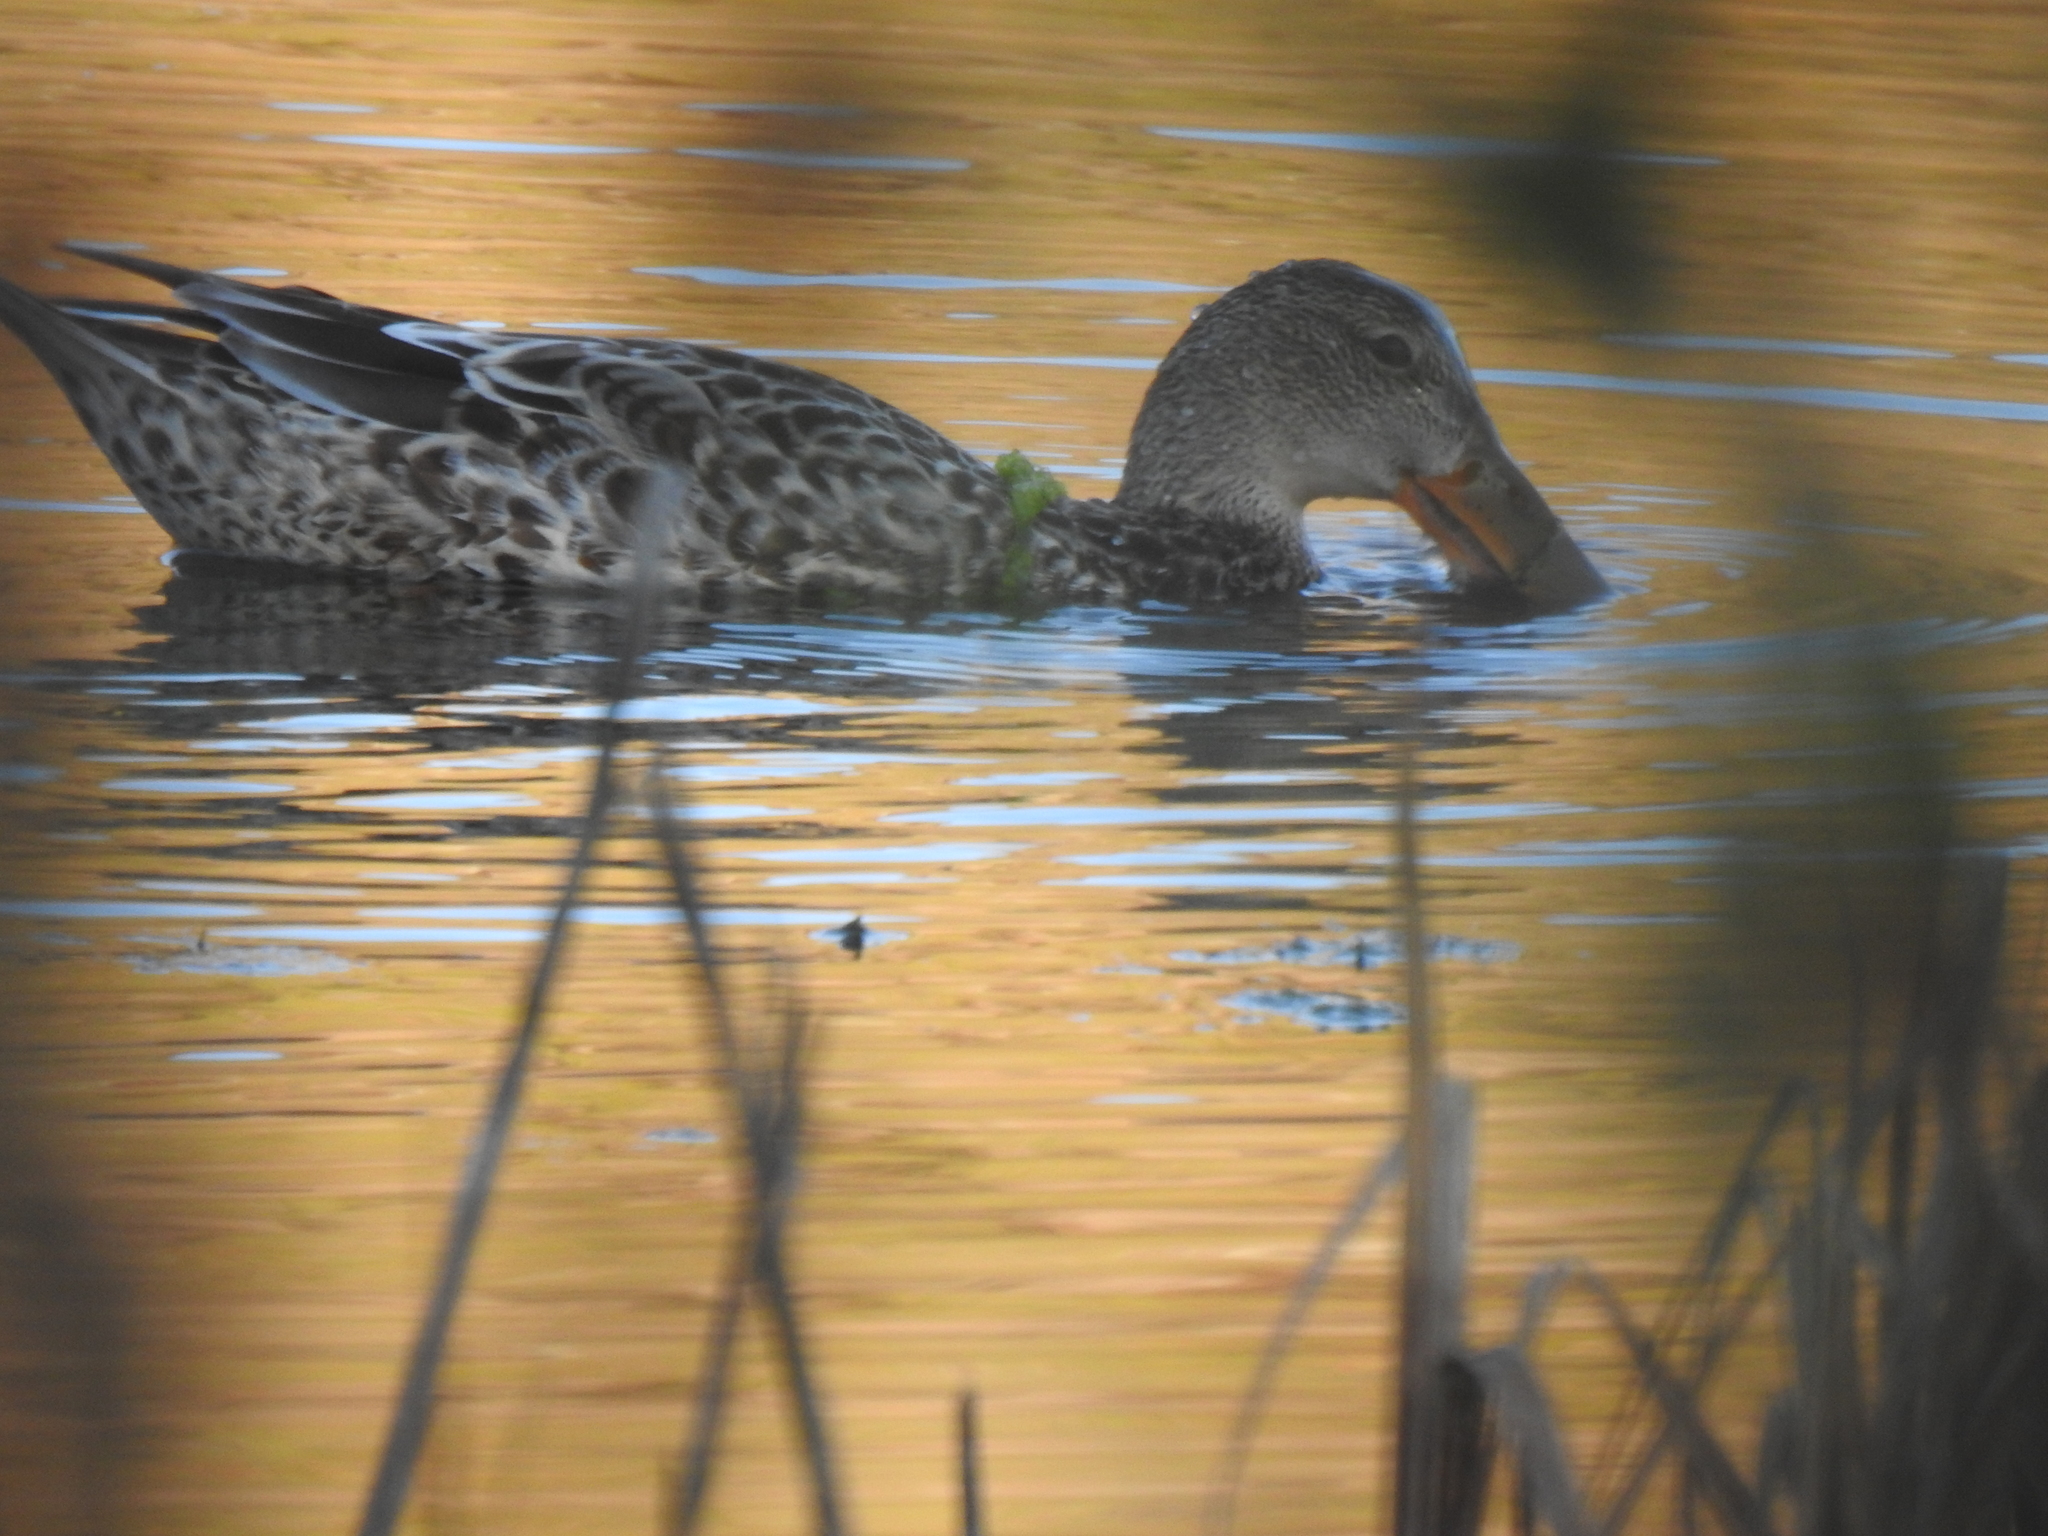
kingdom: Animalia
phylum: Chordata
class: Aves
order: Anseriformes
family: Anatidae
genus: Spatula
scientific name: Spatula clypeata
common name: Northern shoveler
